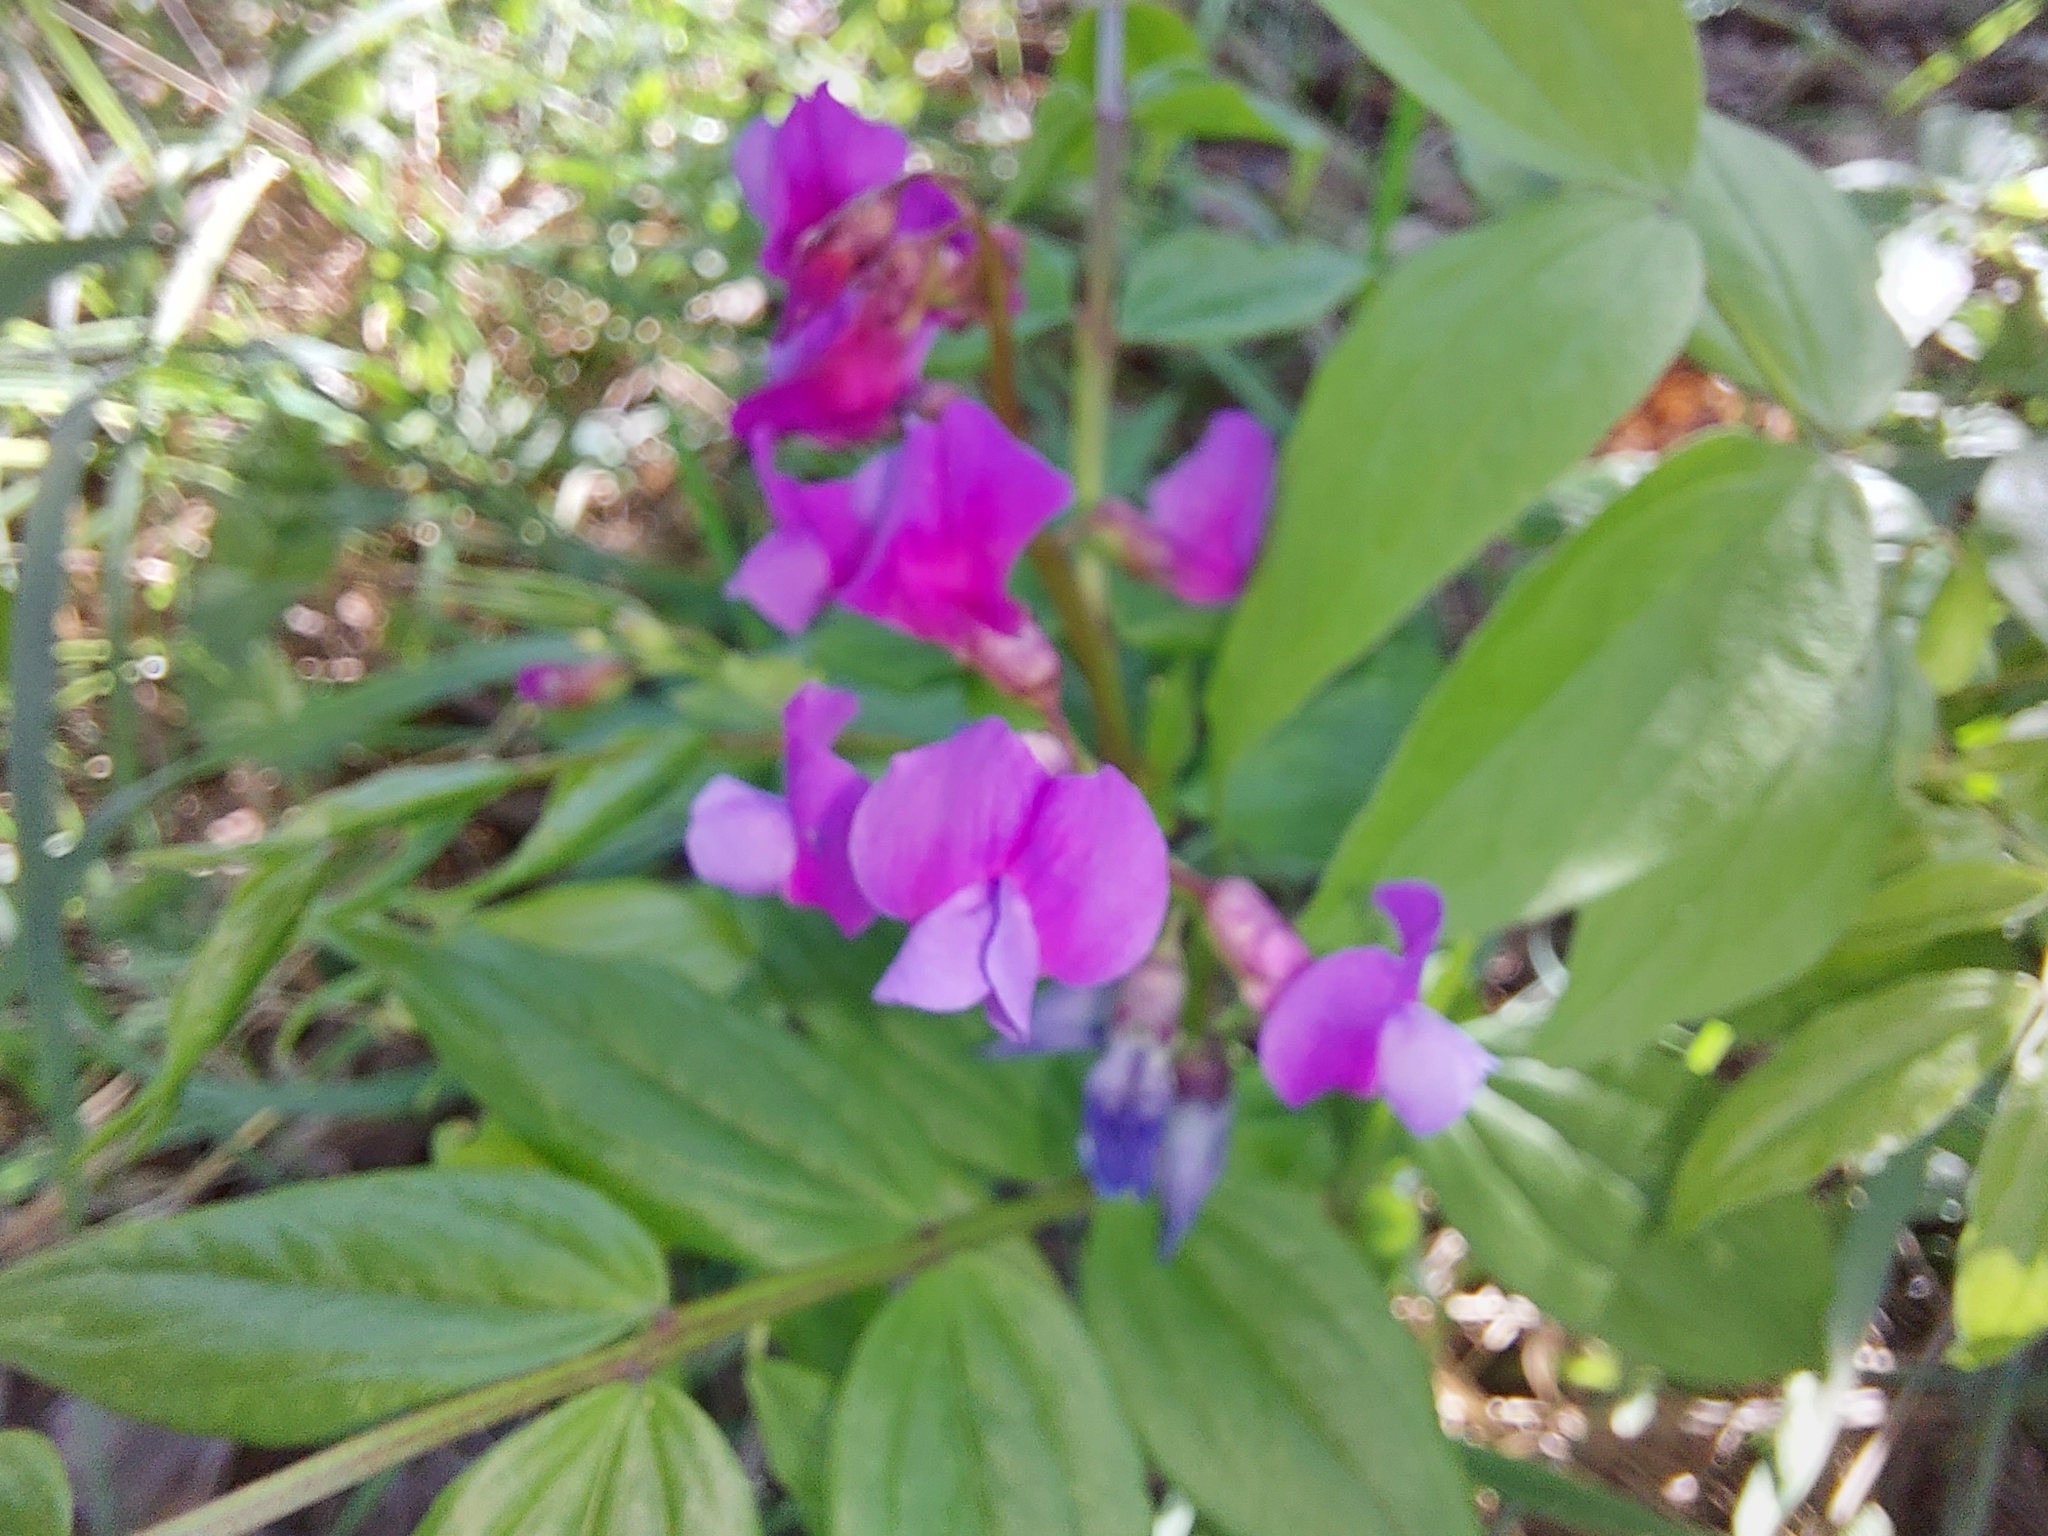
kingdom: Plantae
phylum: Tracheophyta
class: Magnoliopsida
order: Fabales
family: Fabaceae
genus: Lathyrus
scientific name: Lathyrus vernus
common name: Spring pea
